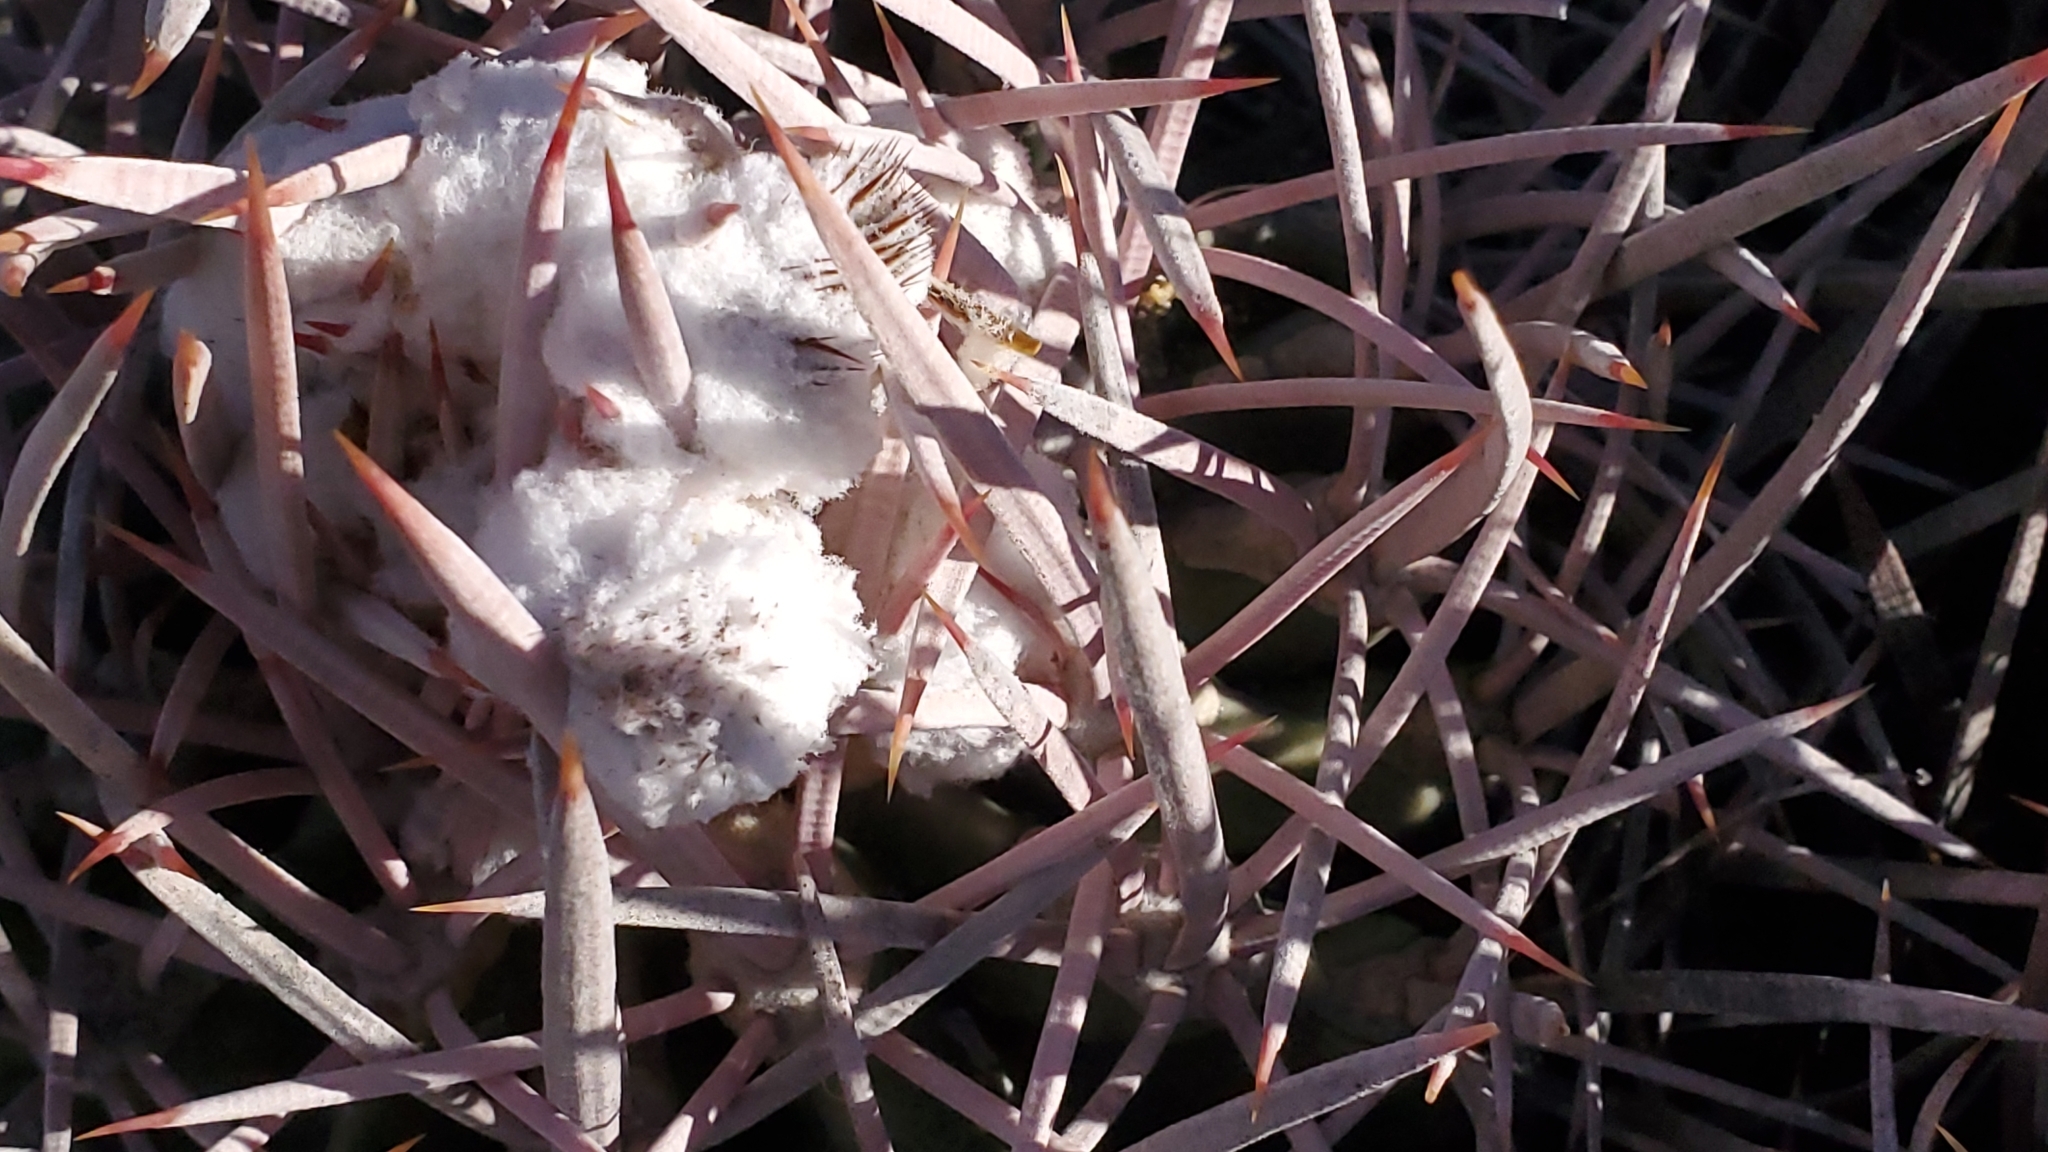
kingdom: Plantae
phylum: Tracheophyta
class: Magnoliopsida
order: Caryophyllales
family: Cactaceae
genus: Echinocactus
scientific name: Echinocactus polycephalus
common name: Cottontop cactus
